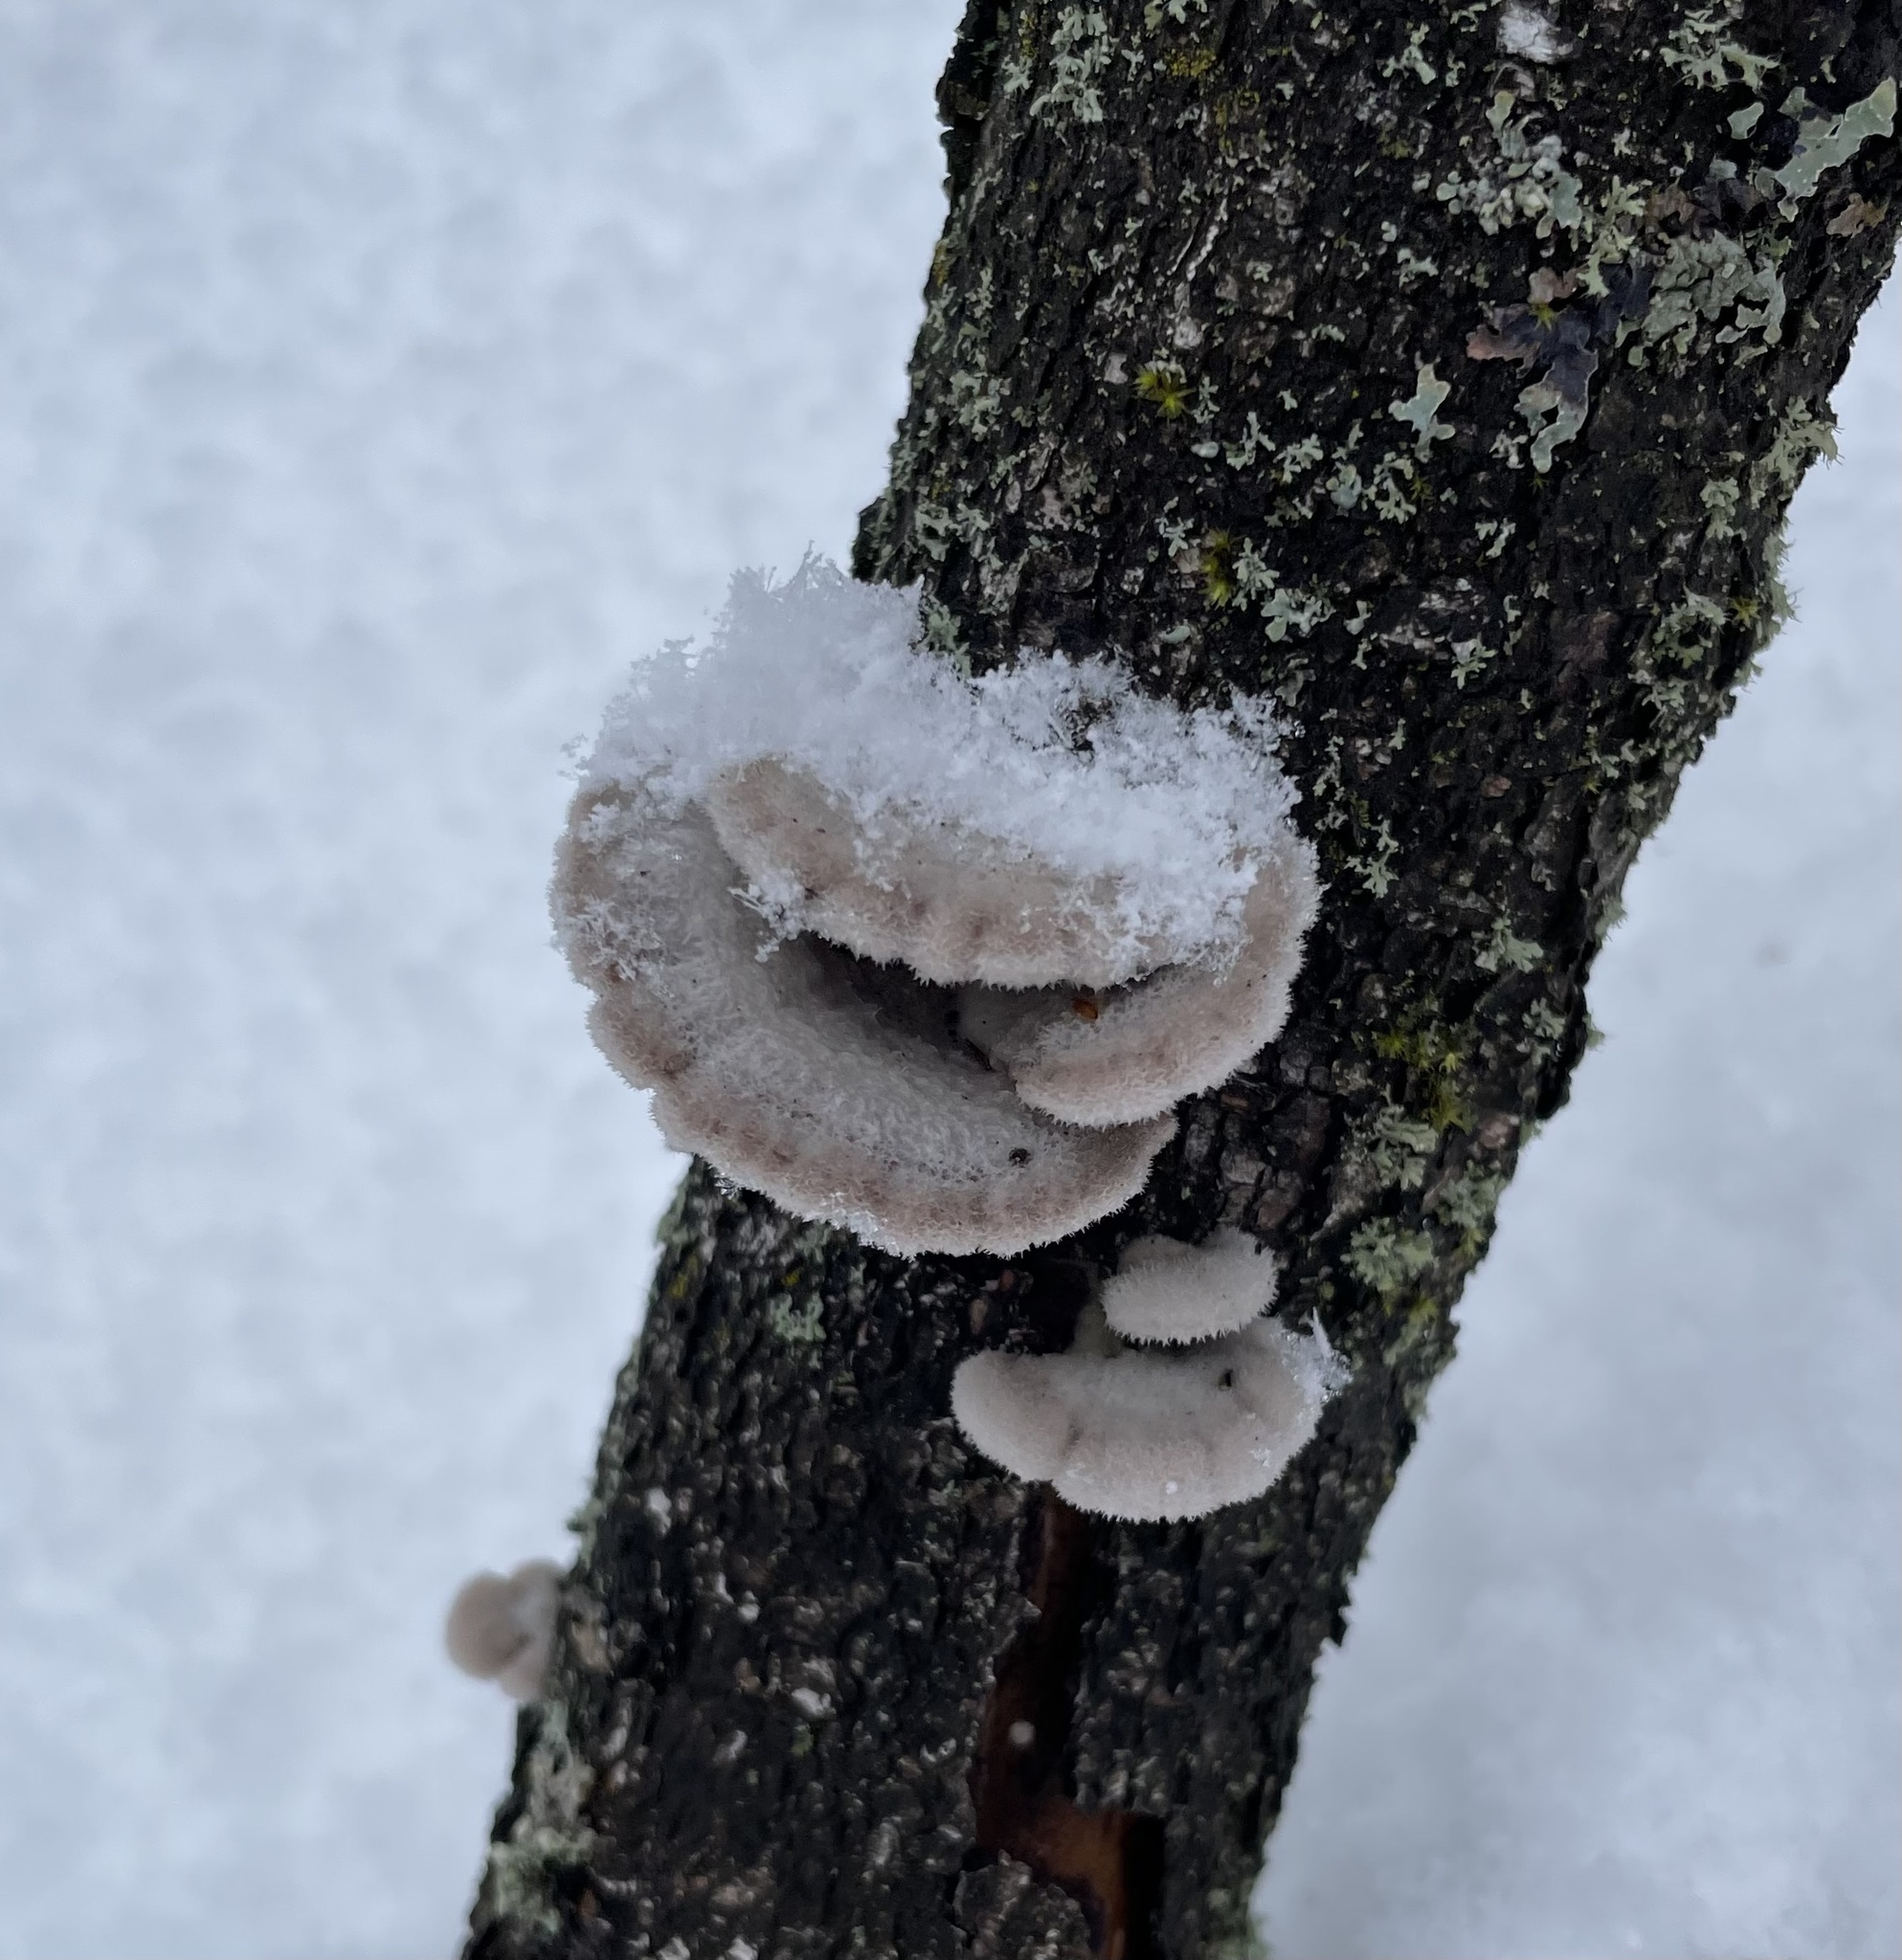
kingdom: Fungi
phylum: Basidiomycota
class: Agaricomycetes
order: Agaricales
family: Schizophyllaceae
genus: Schizophyllum
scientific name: Schizophyllum commune
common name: Common porecrust
